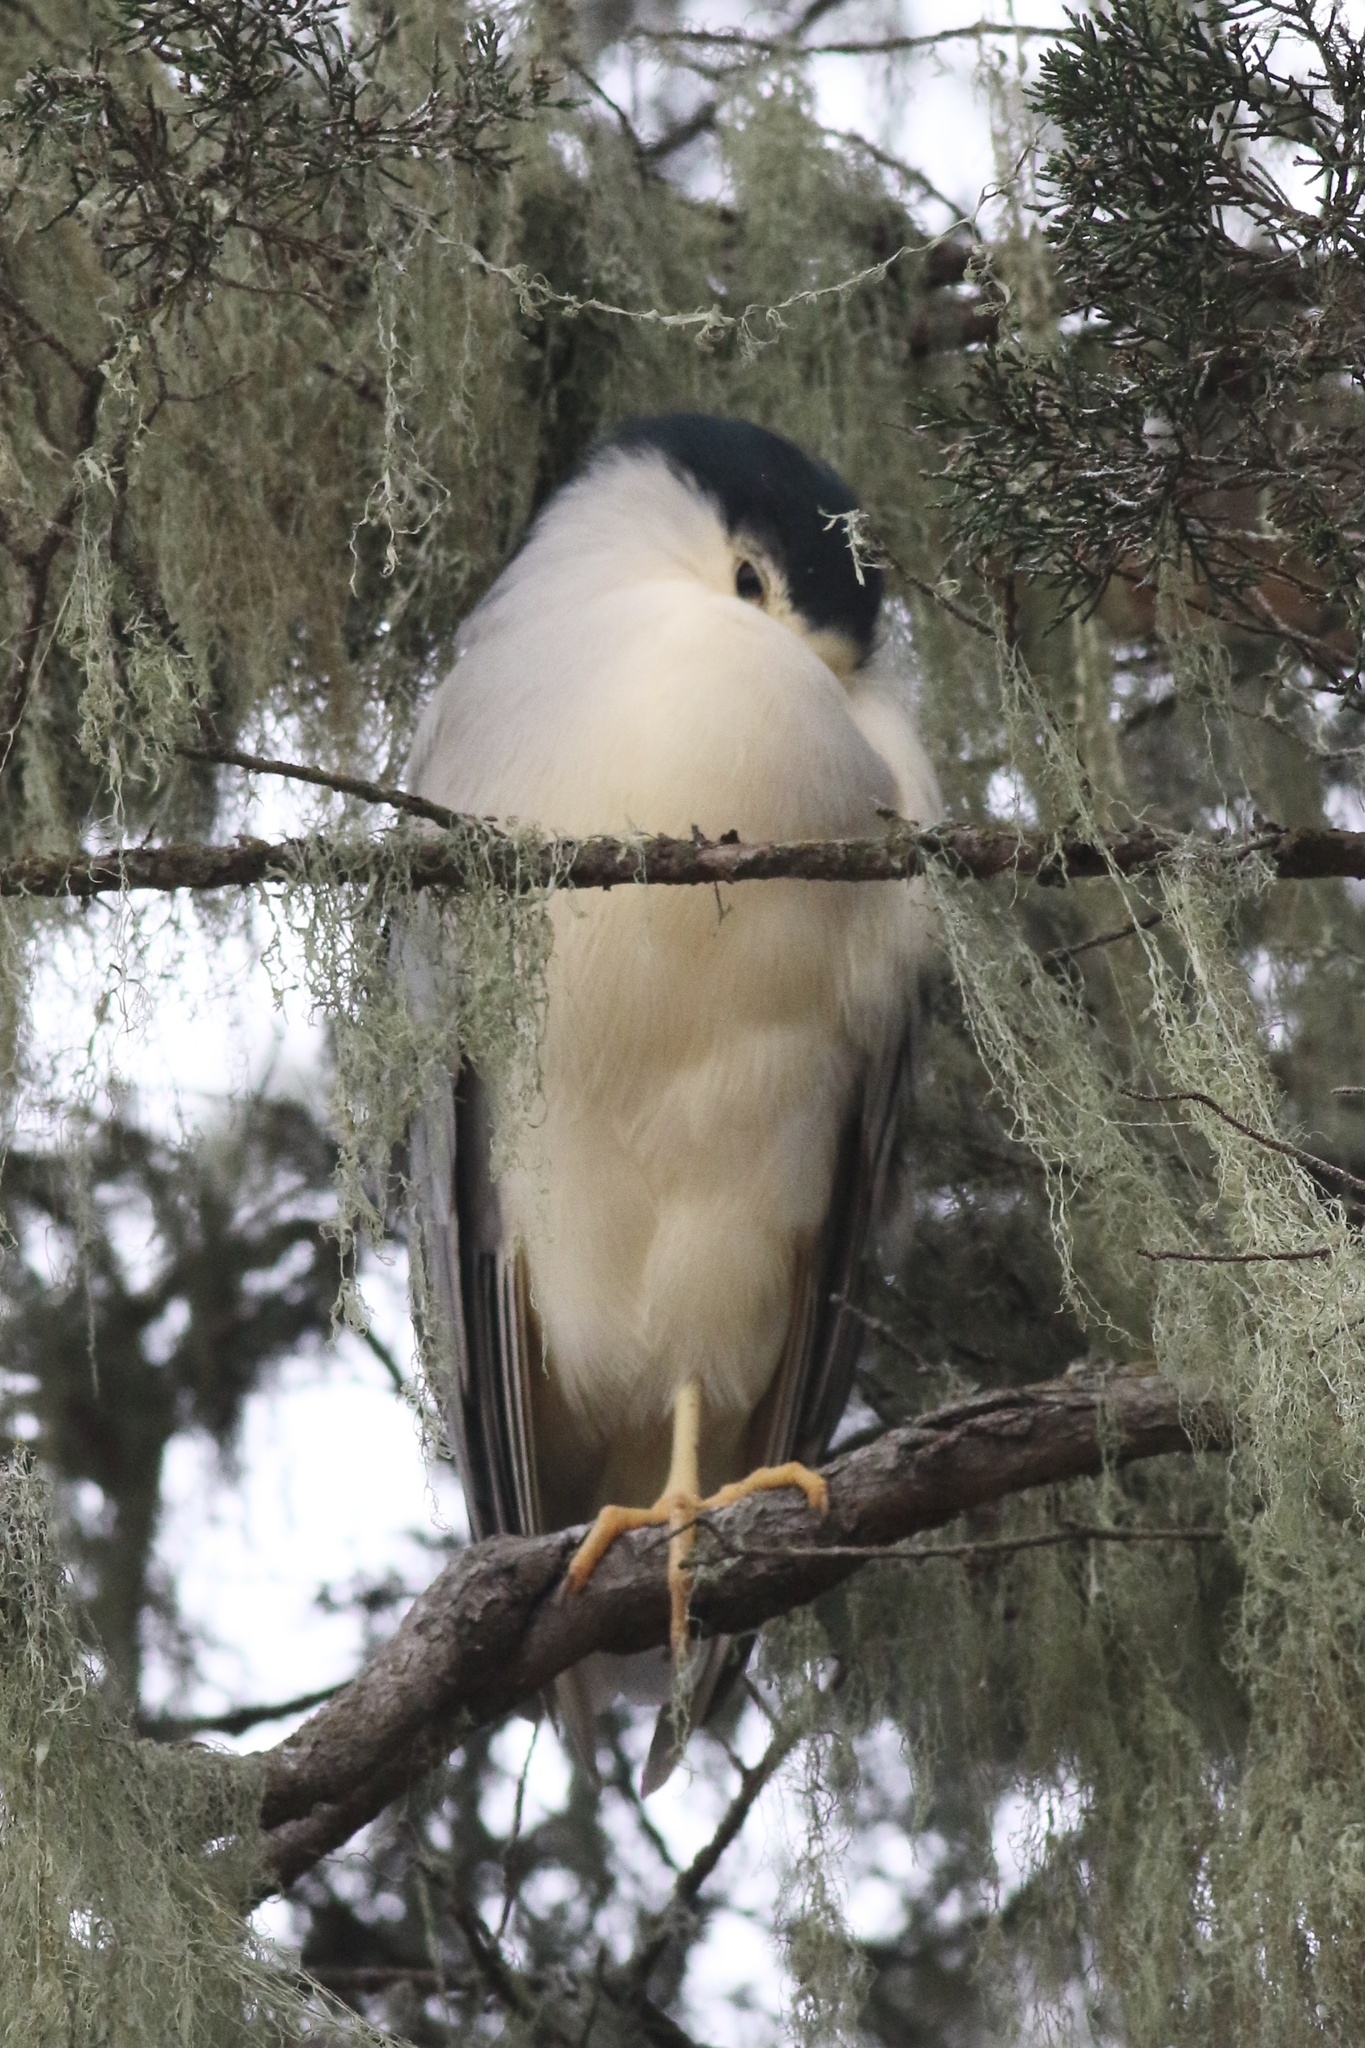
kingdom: Animalia
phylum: Chordata
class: Aves
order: Pelecaniformes
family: Ardeidae
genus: Nycticorax
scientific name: Nycticorax nycticorax
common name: Black-crowned night heron
